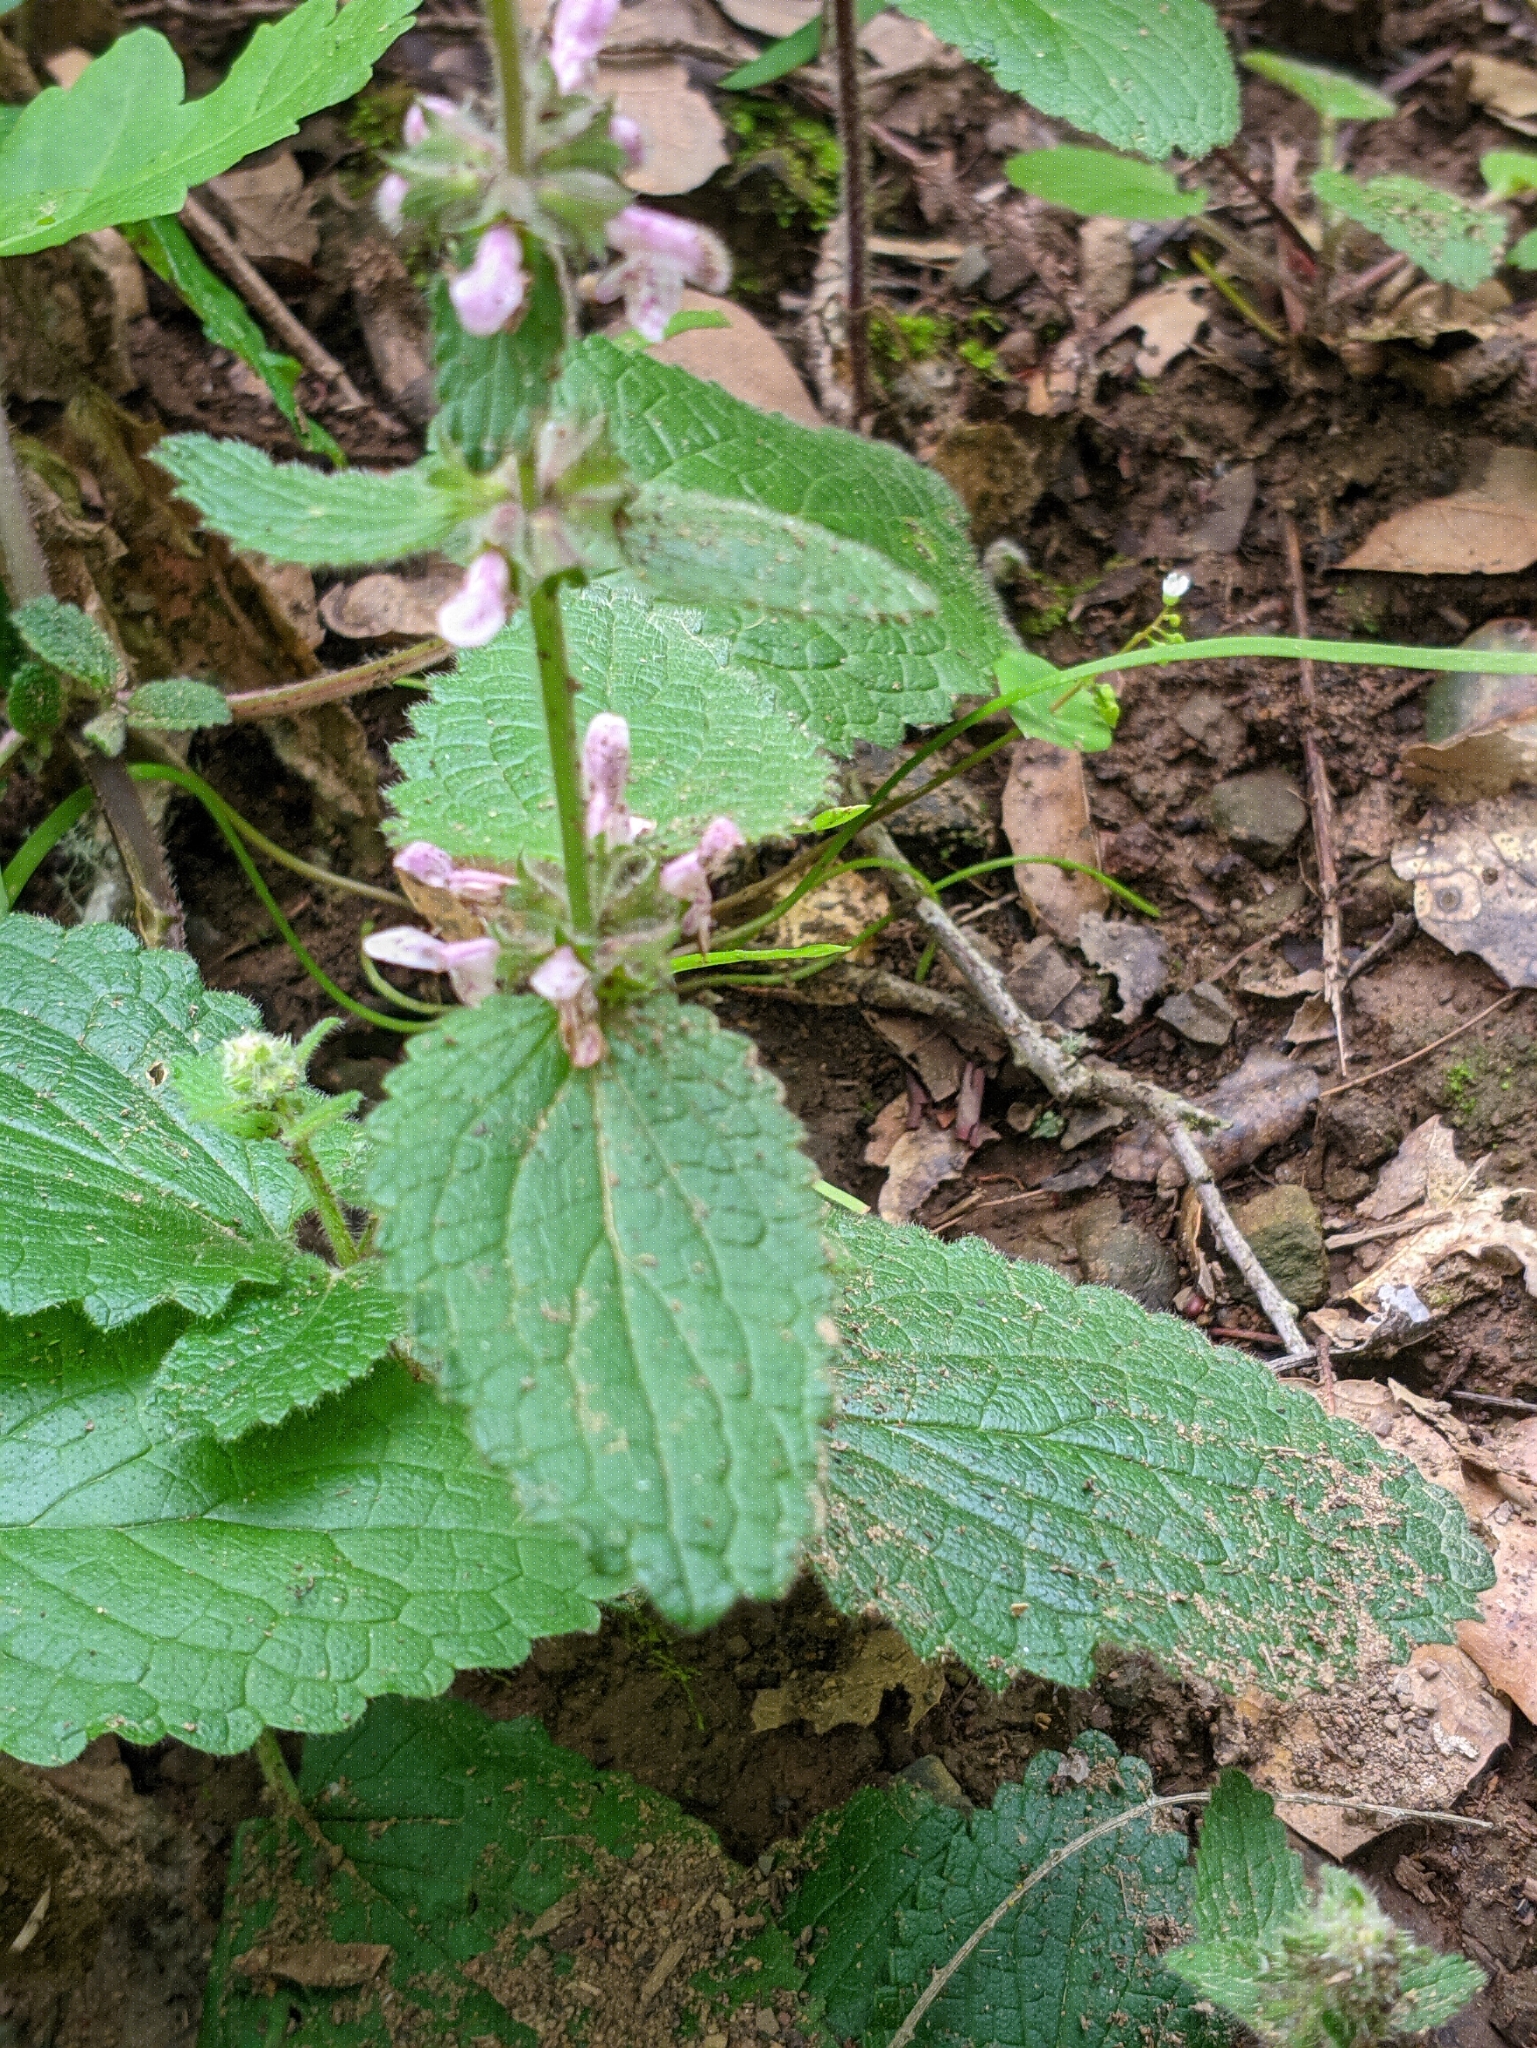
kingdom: Plantae
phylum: Tracheophyta
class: Magnoliopsida
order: Lamiales
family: Lamiaceae
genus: Stachys
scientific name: Stachys rigida
